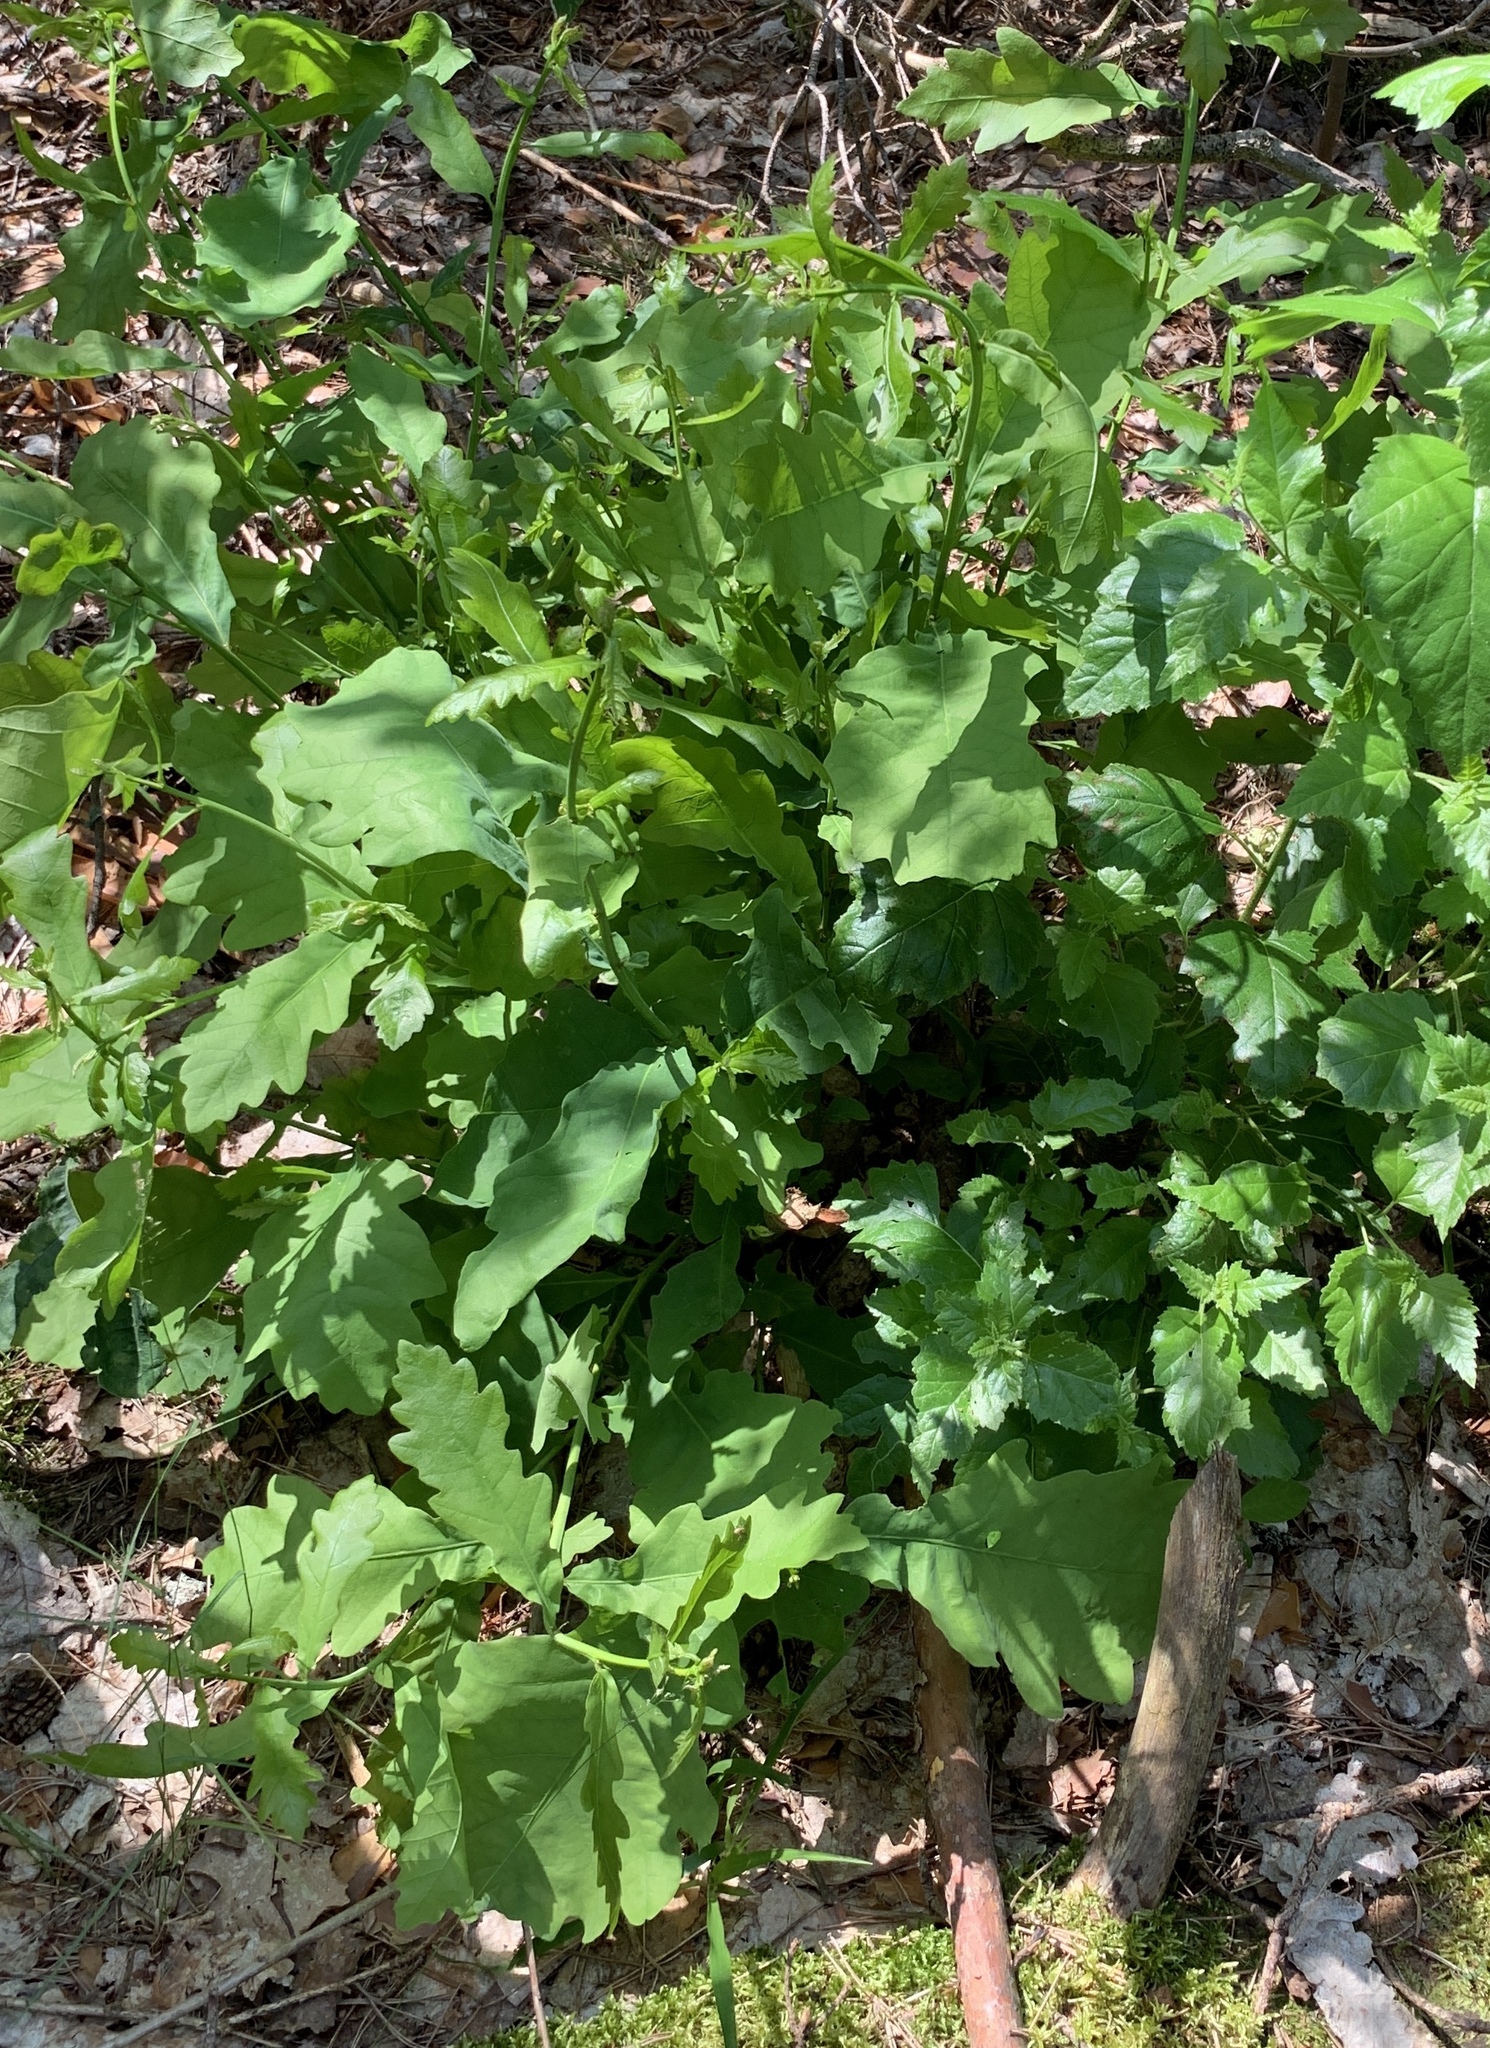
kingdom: Plantae
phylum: Tracheophyta
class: Magnoliopsida
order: Fagales
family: Fagaceae
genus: Quercus
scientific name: Quercus robur
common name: Pedunculate oak
